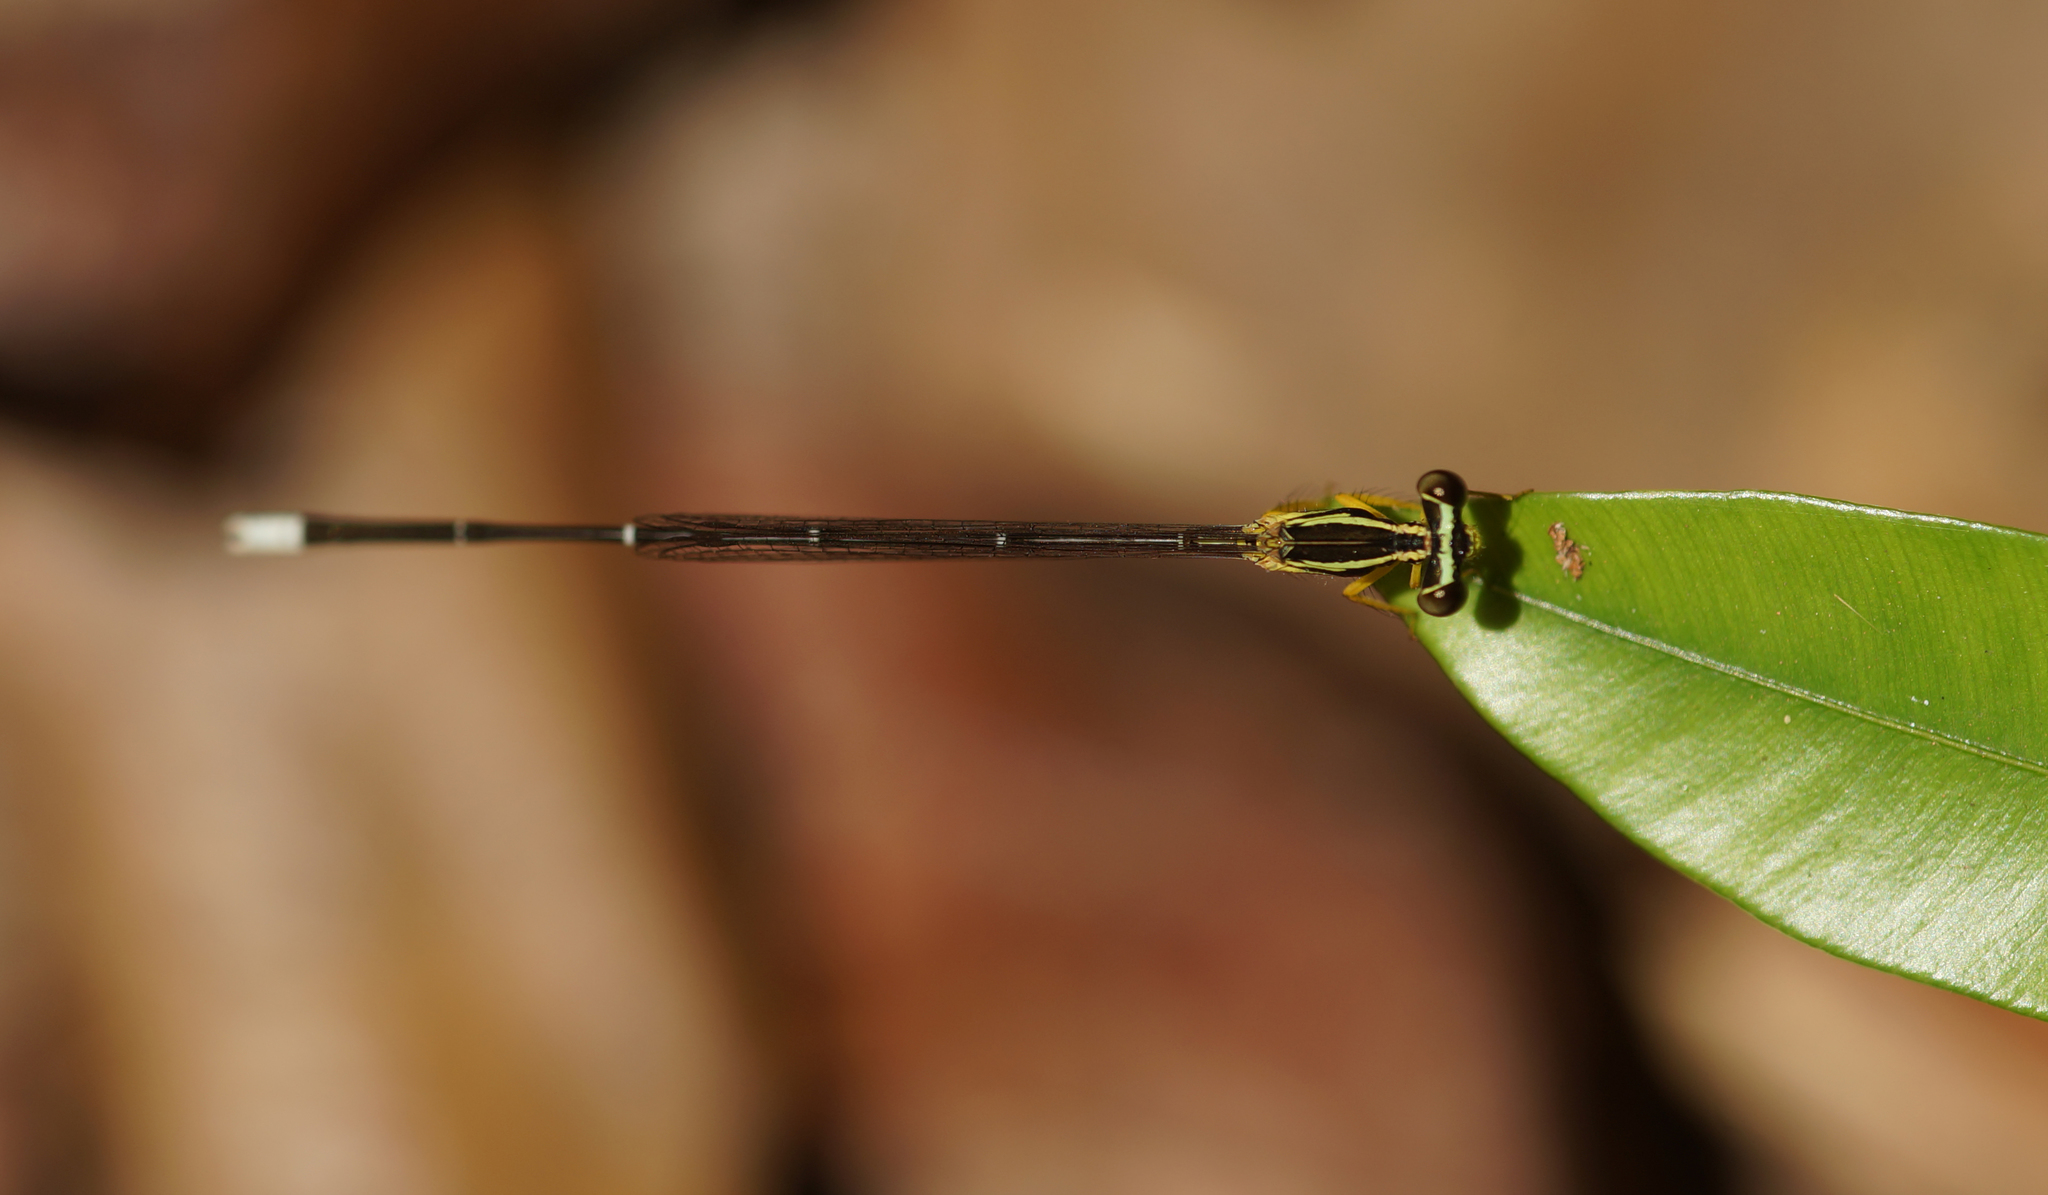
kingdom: Animalia
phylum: Arthropoda
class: Insecta
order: Odonata
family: Platycnemididae
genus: Copera
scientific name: Copera marginipes
